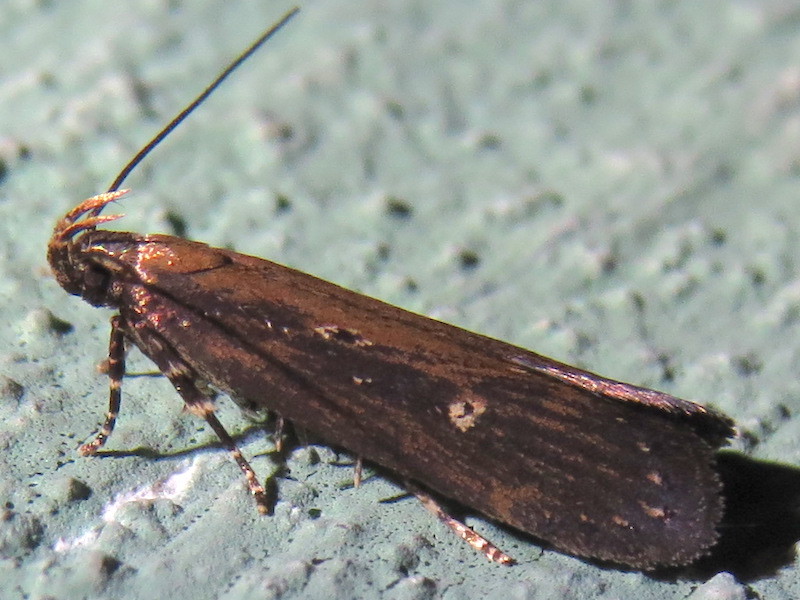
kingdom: Animalia
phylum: Arthropoda
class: Insecta
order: Lepidoptera
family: Gelechiidae
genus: Chionodes
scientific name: Chionodes discoocellella
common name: Eye-ringed chionodes moth
